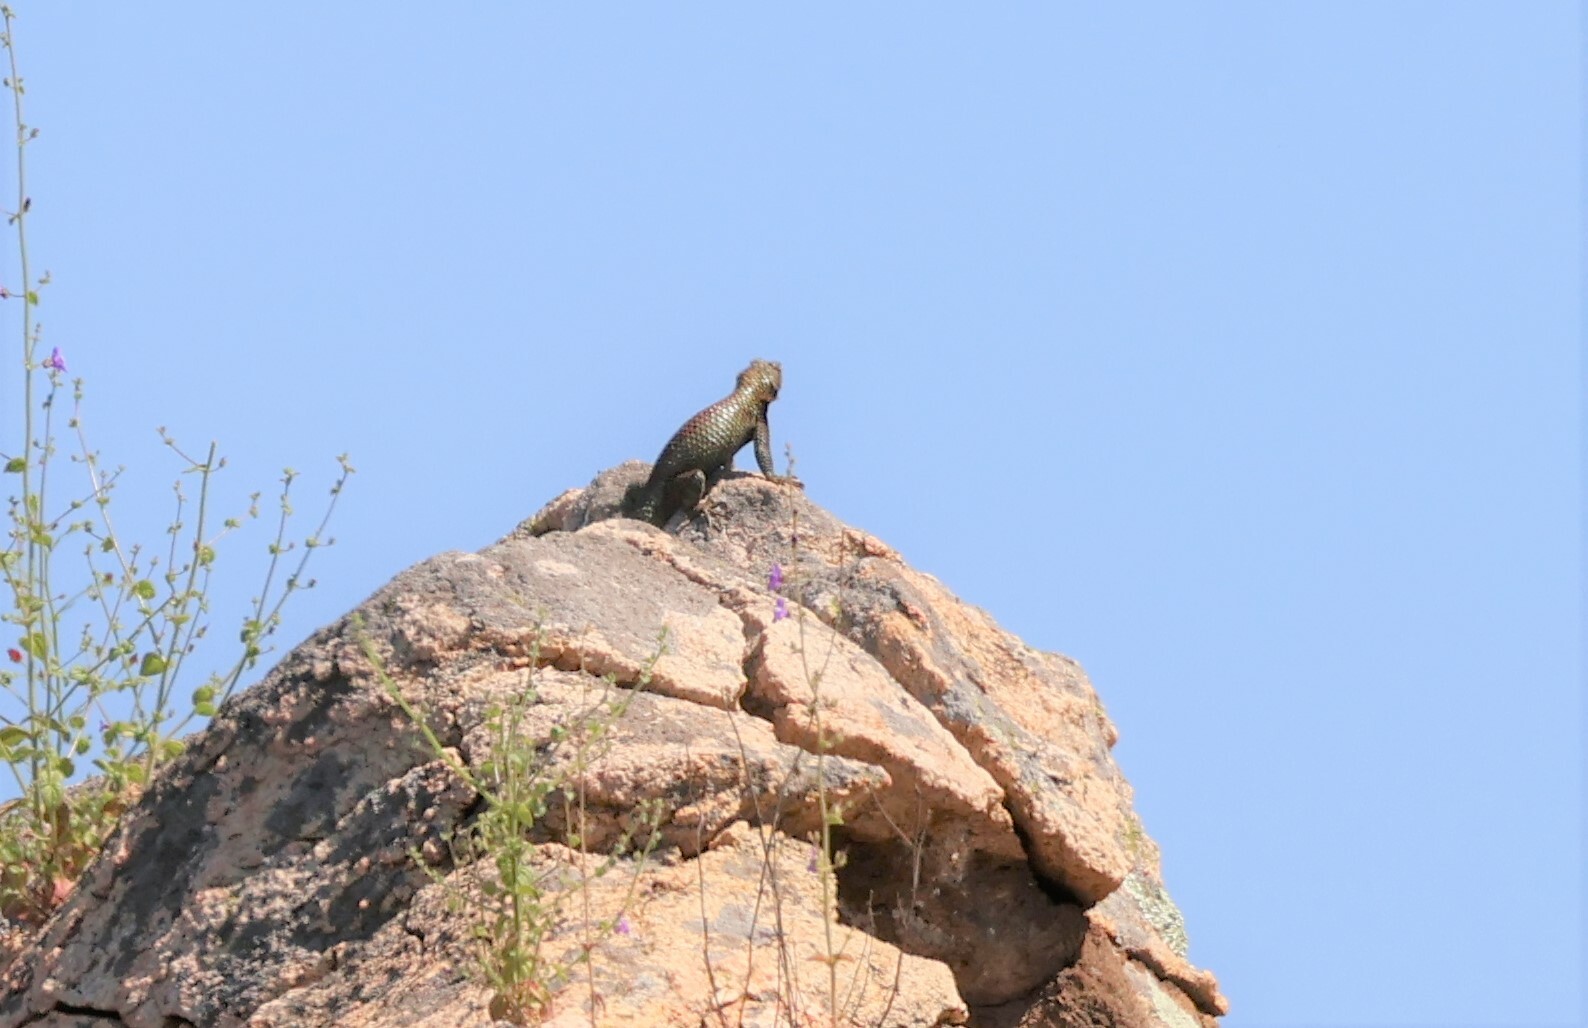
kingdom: Animalia
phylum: Chordata
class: Squamata
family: Phrynosomatidae
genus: Sceloporus
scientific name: Sceloporus orcutti
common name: Granite spiny lizard
